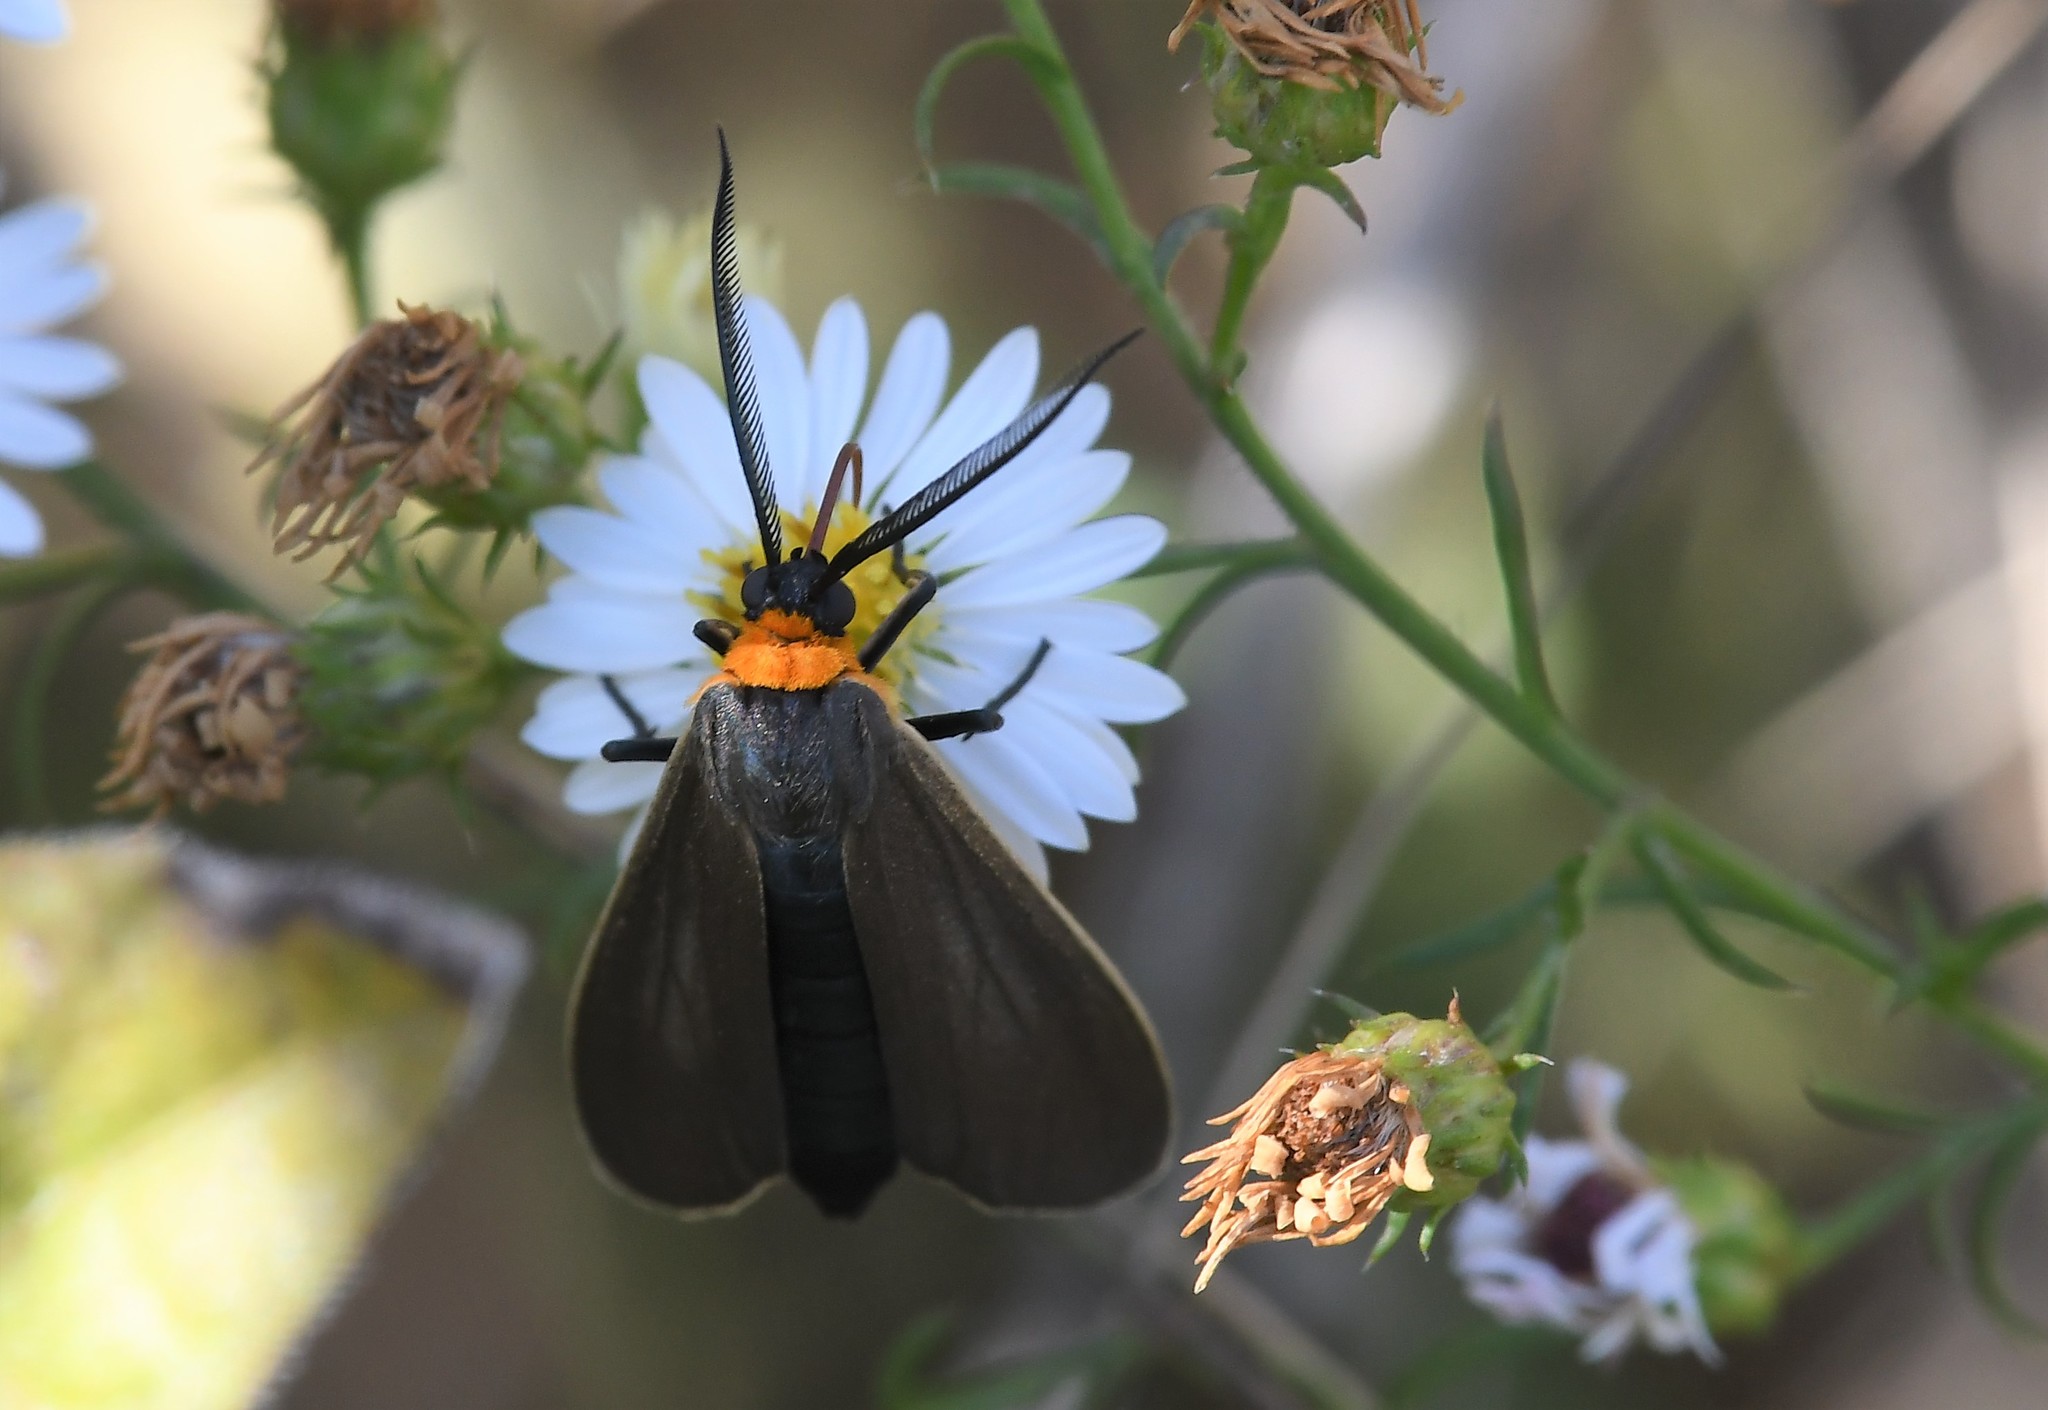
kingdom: Animalia
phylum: Arthropoda
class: Insecta
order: Lepidoptera
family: Erebidae
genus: Cisseps
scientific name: Cisseps fulvicollis
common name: Yellow-collared scape moth
